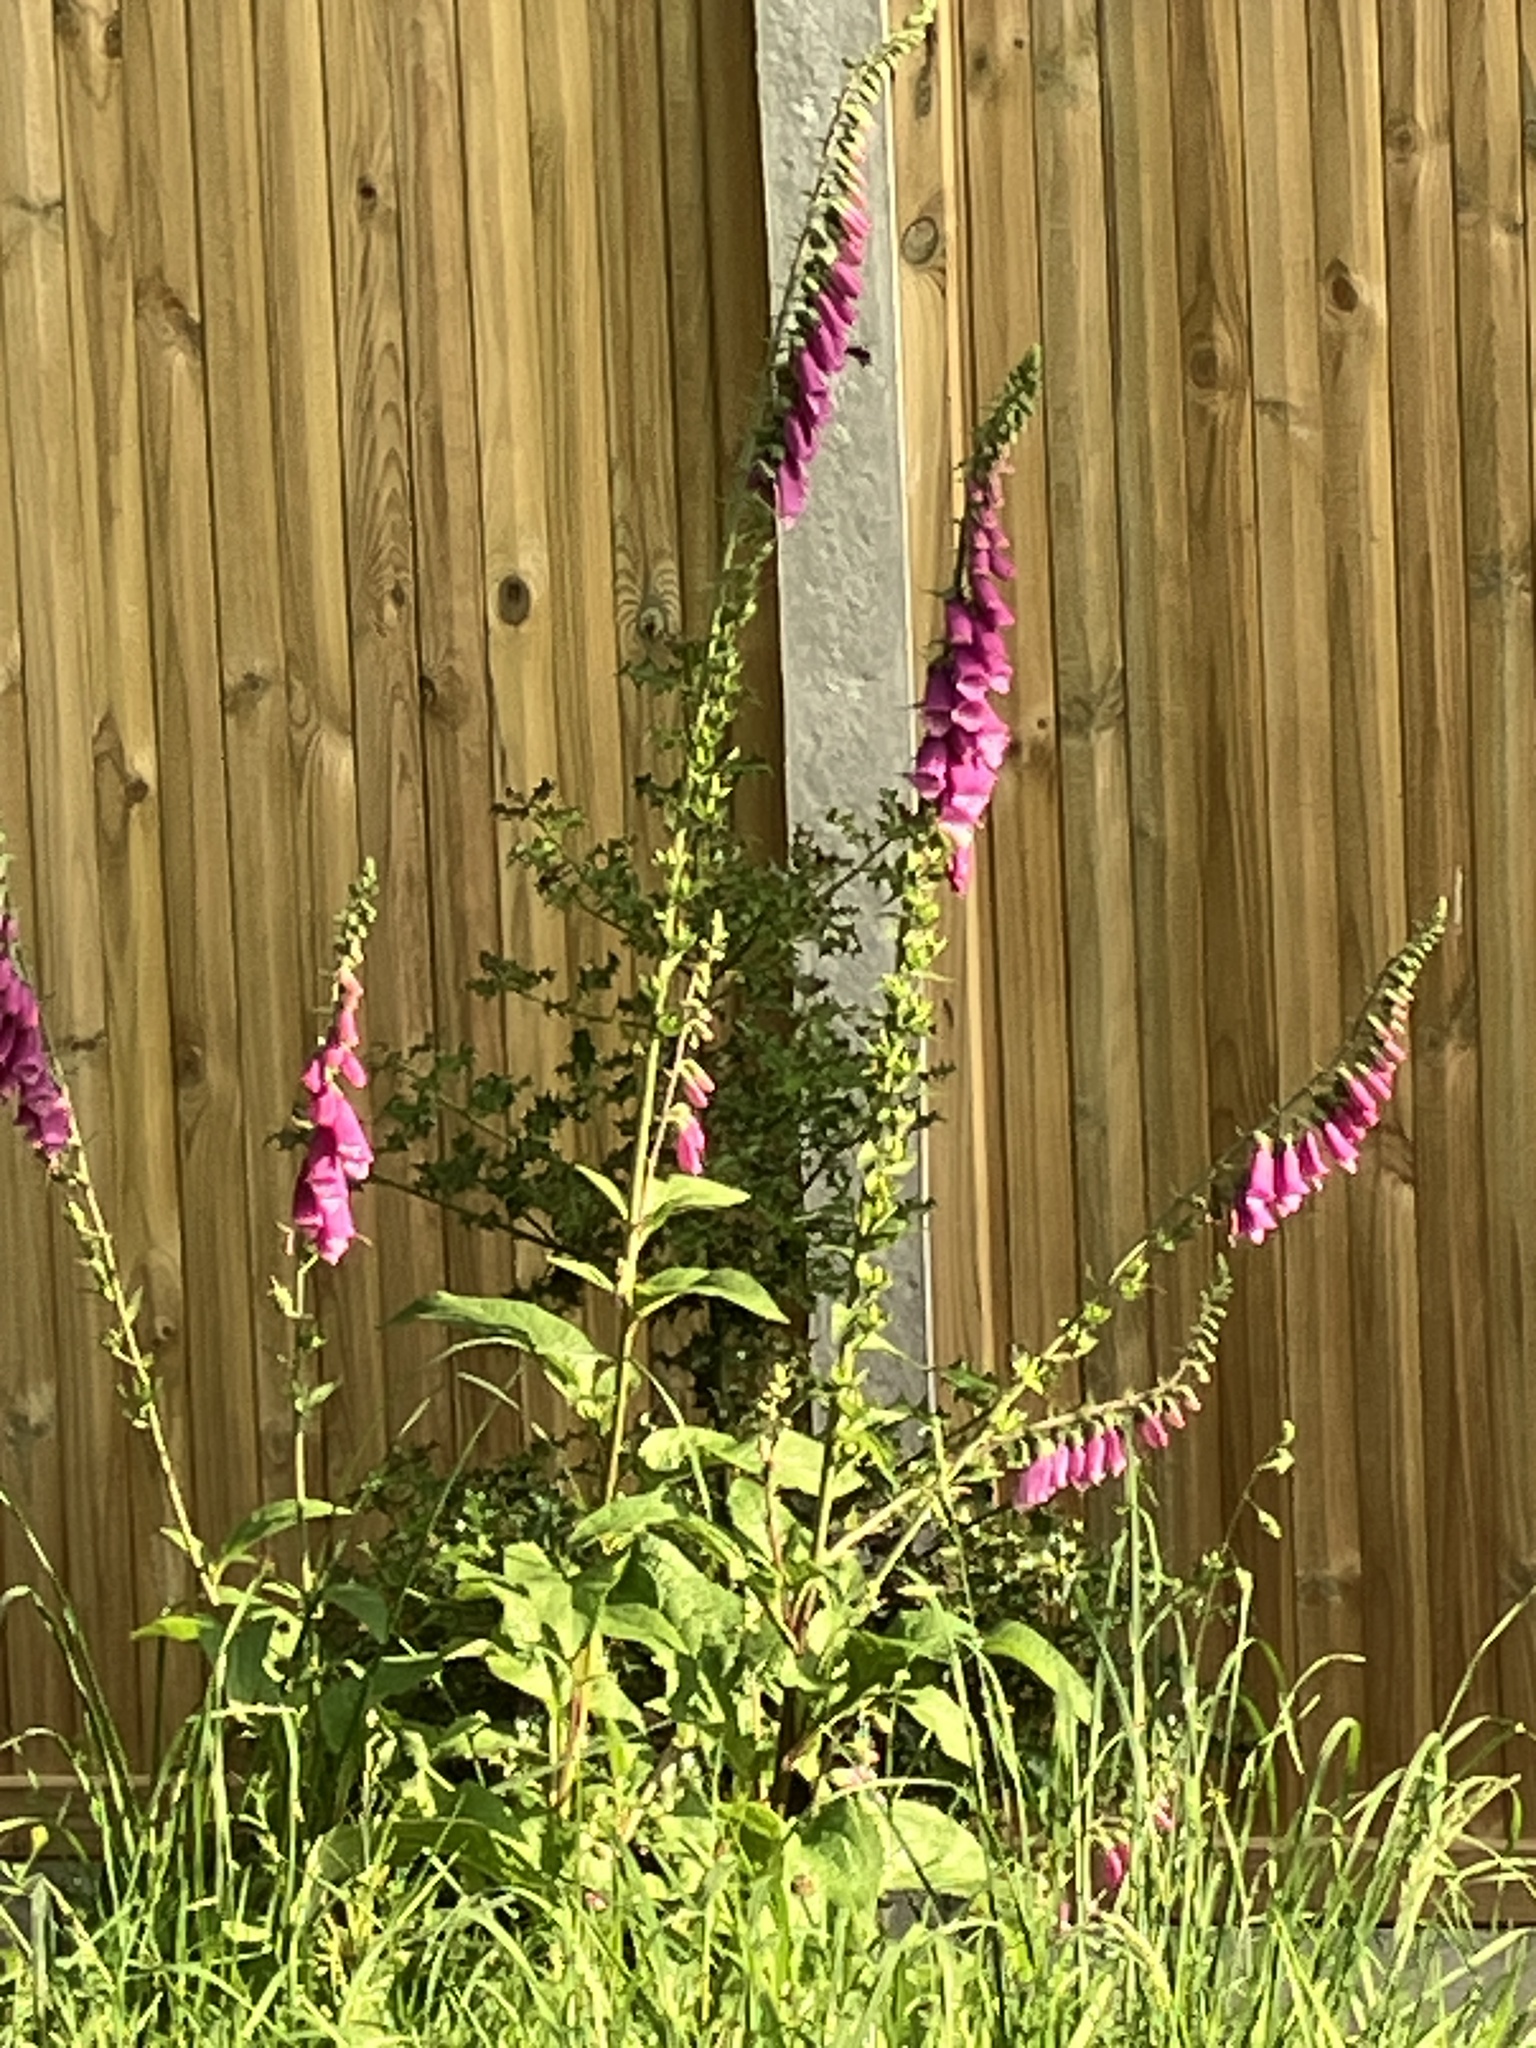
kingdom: Plantae
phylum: Tracheophyta
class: Magnoliopsida
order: Lamiales
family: Plantaginaceae
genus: Digitalis
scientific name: Digitalis purpurea
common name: Foxglove
